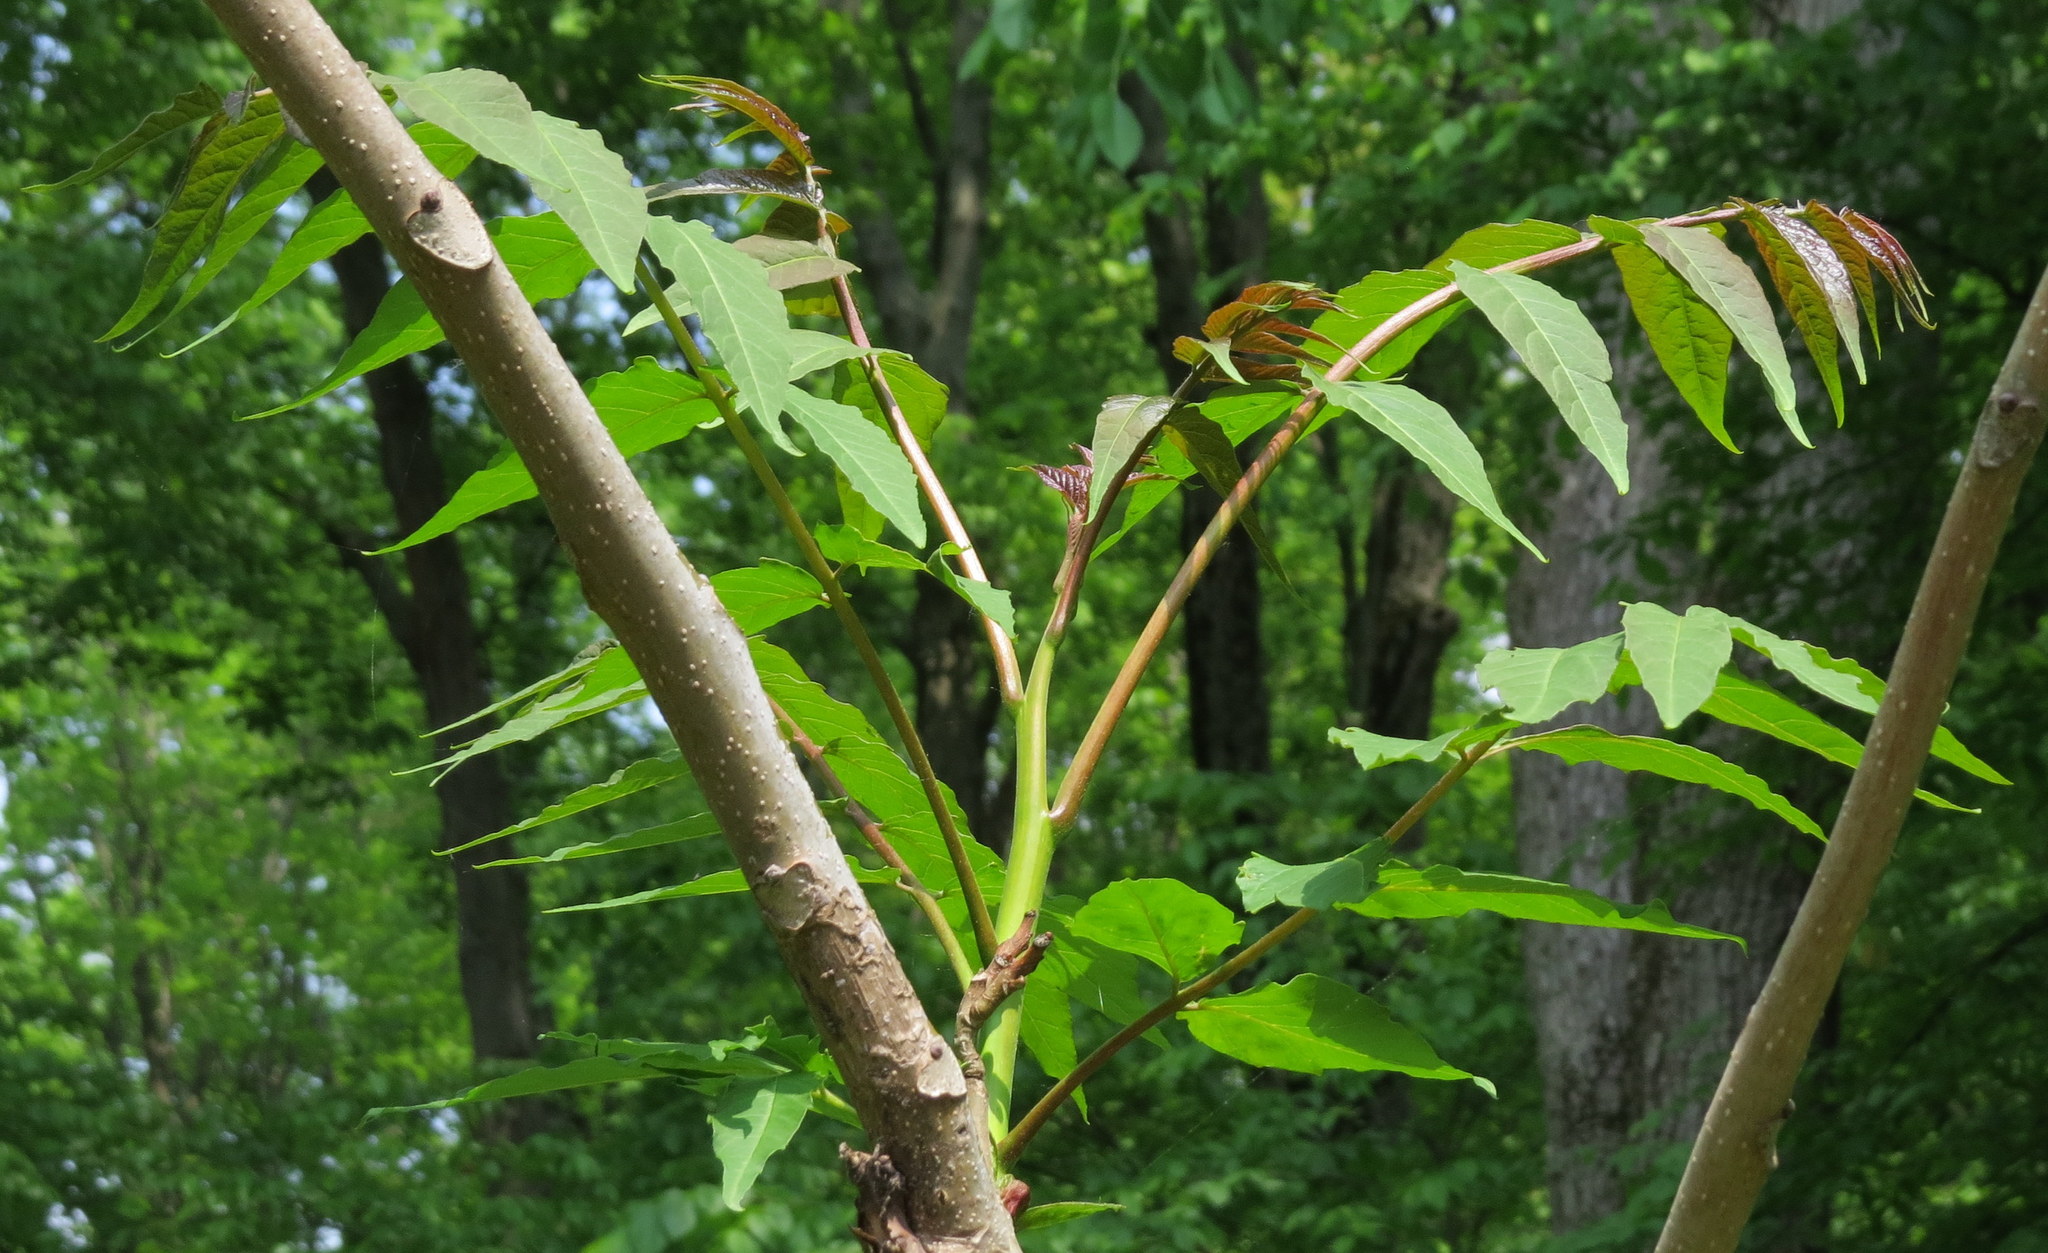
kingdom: Plantae
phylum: Tracheophyta
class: Magnoliopsida
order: Sapindales
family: Simaroubaceae
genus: Ailanthus
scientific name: Ailanthus altissima
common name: Tree-of-heaven
